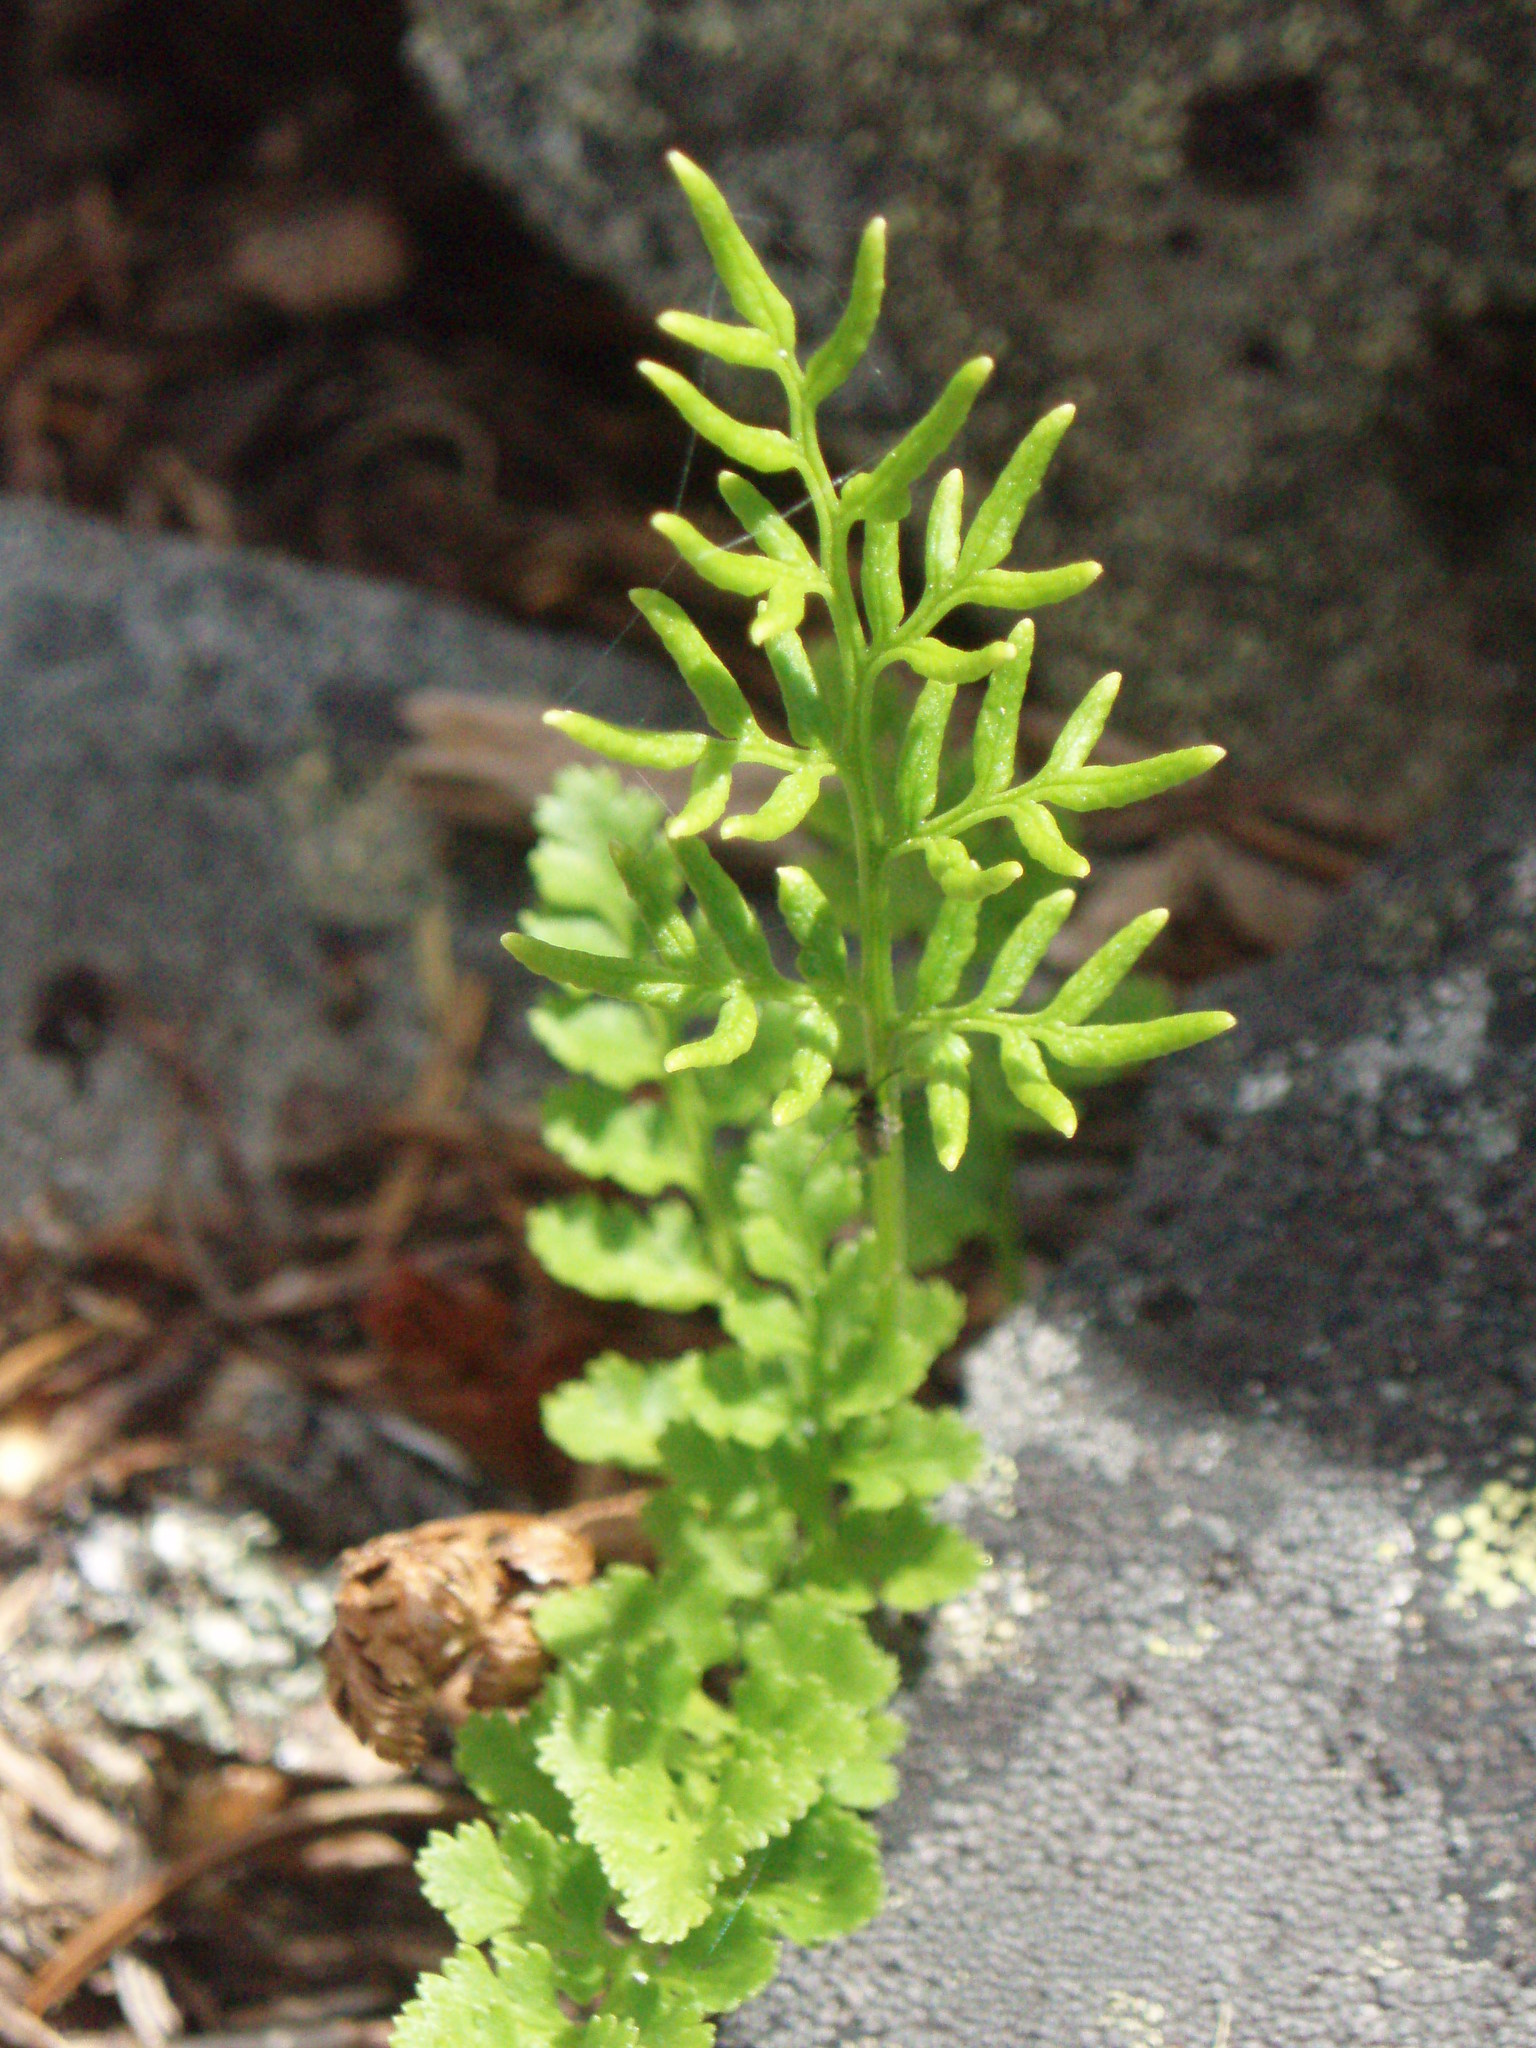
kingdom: Plantae
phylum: Tracheophyta
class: Polypodiopsida
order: Polypodiales
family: Pteridaceae
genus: Cryptogramma
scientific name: Cryptogramma acrostichoides
